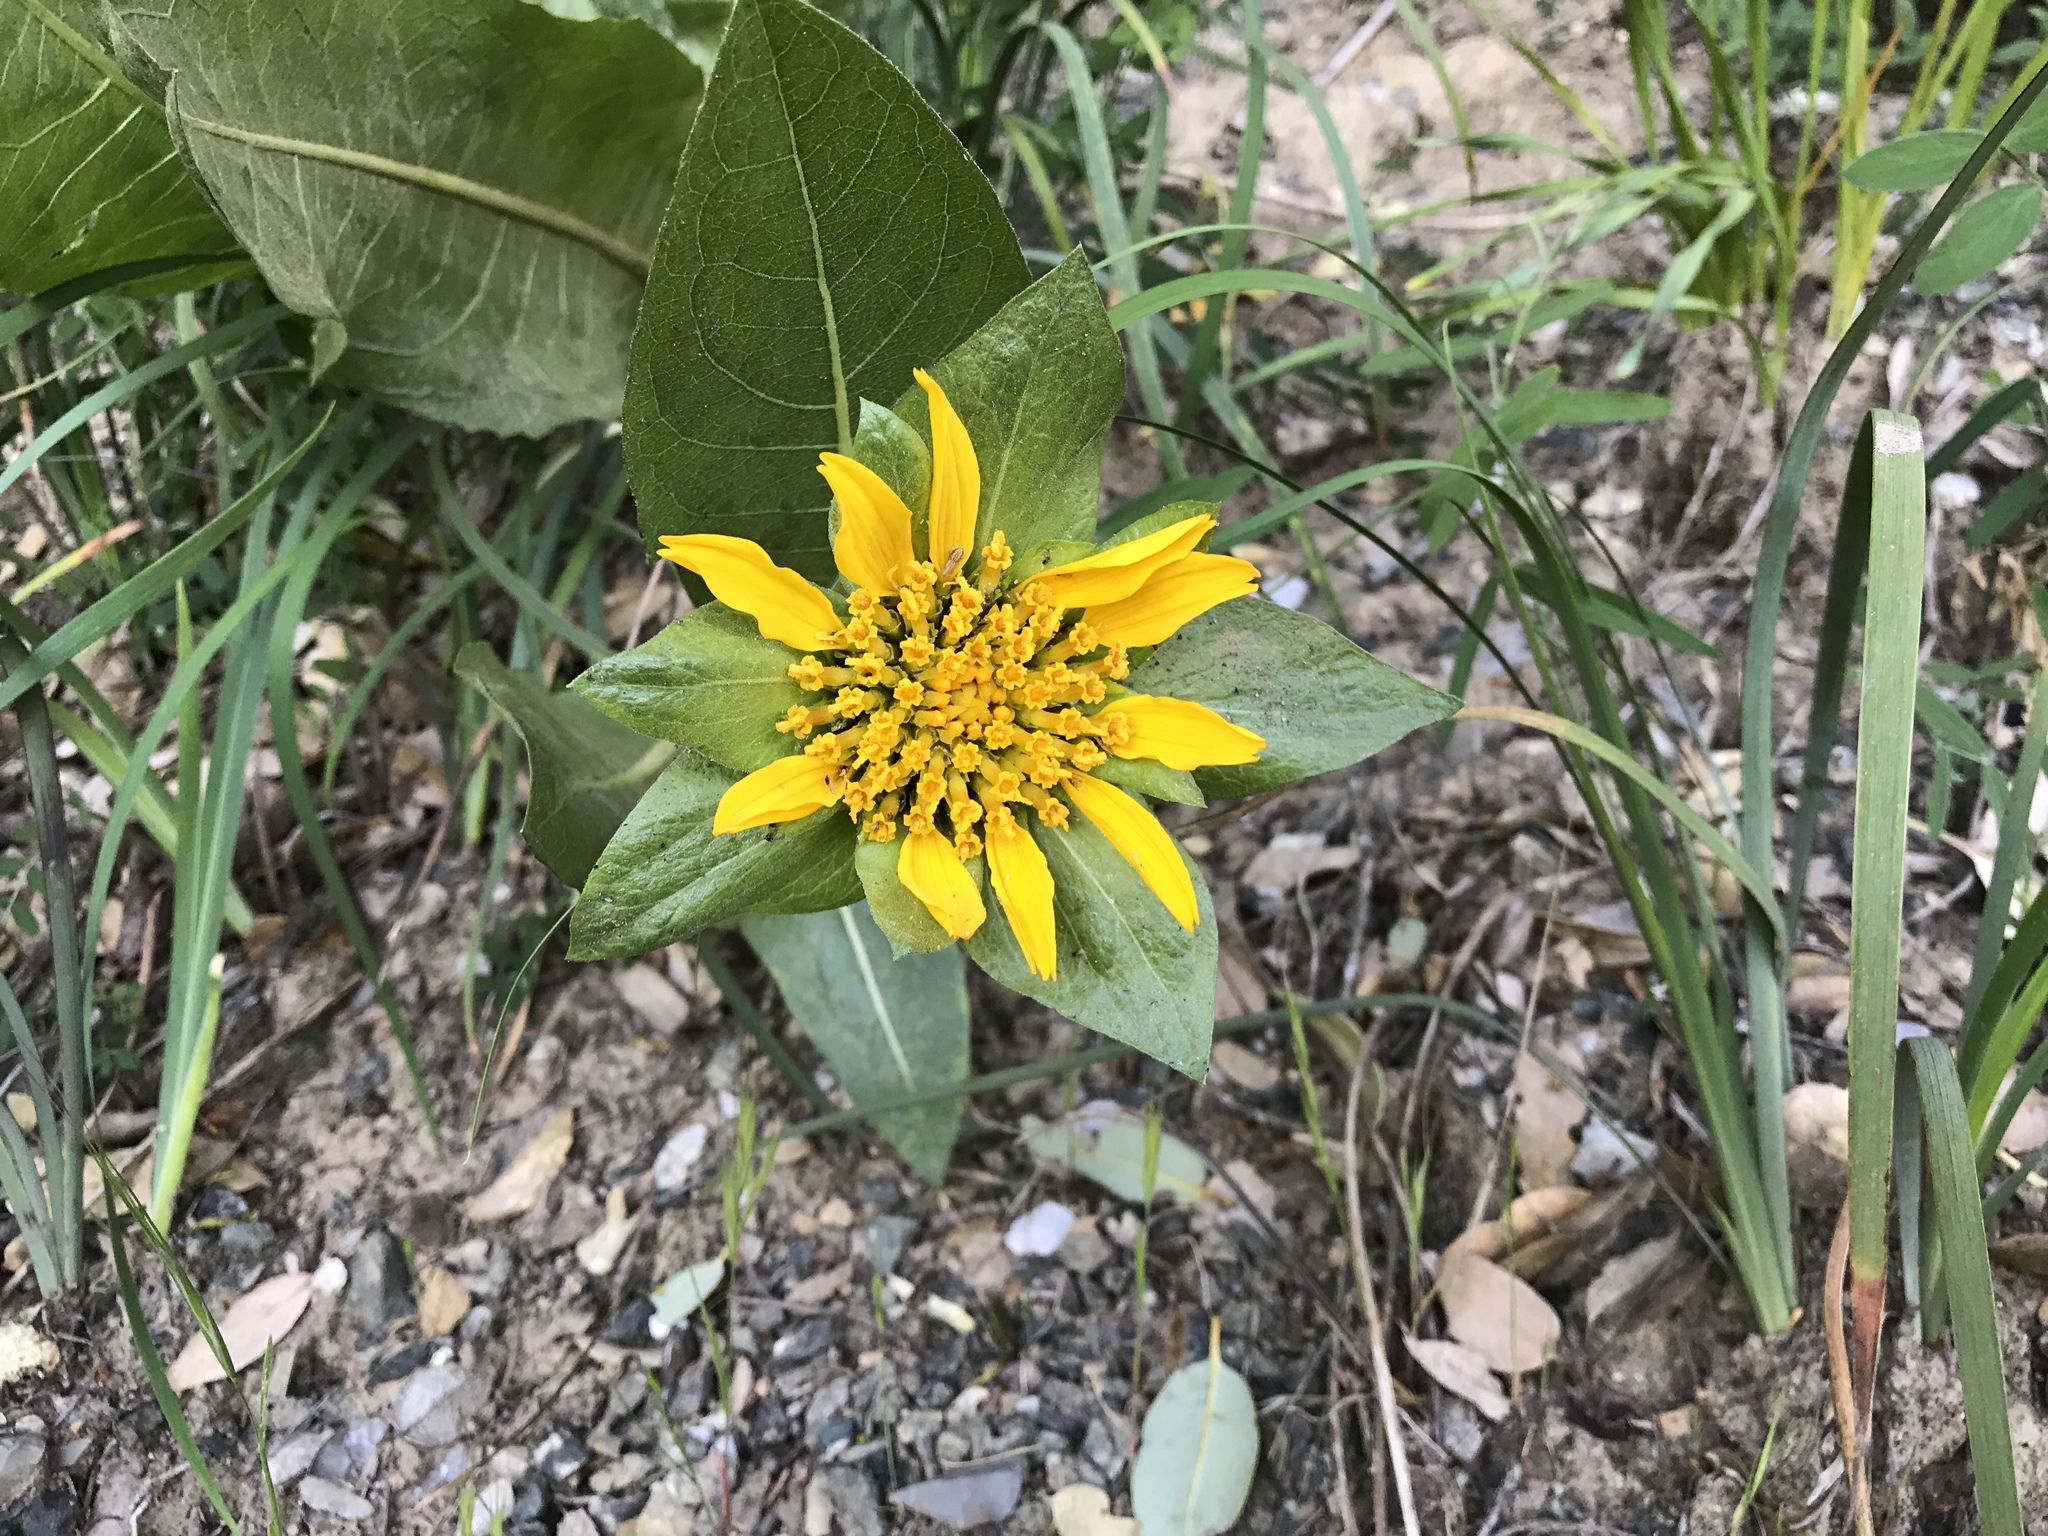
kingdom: Plantae
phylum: Tracheophyta
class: Magnoliopsida
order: Asterales
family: Asteraceae
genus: Wyethia
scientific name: Wyethia glabra
